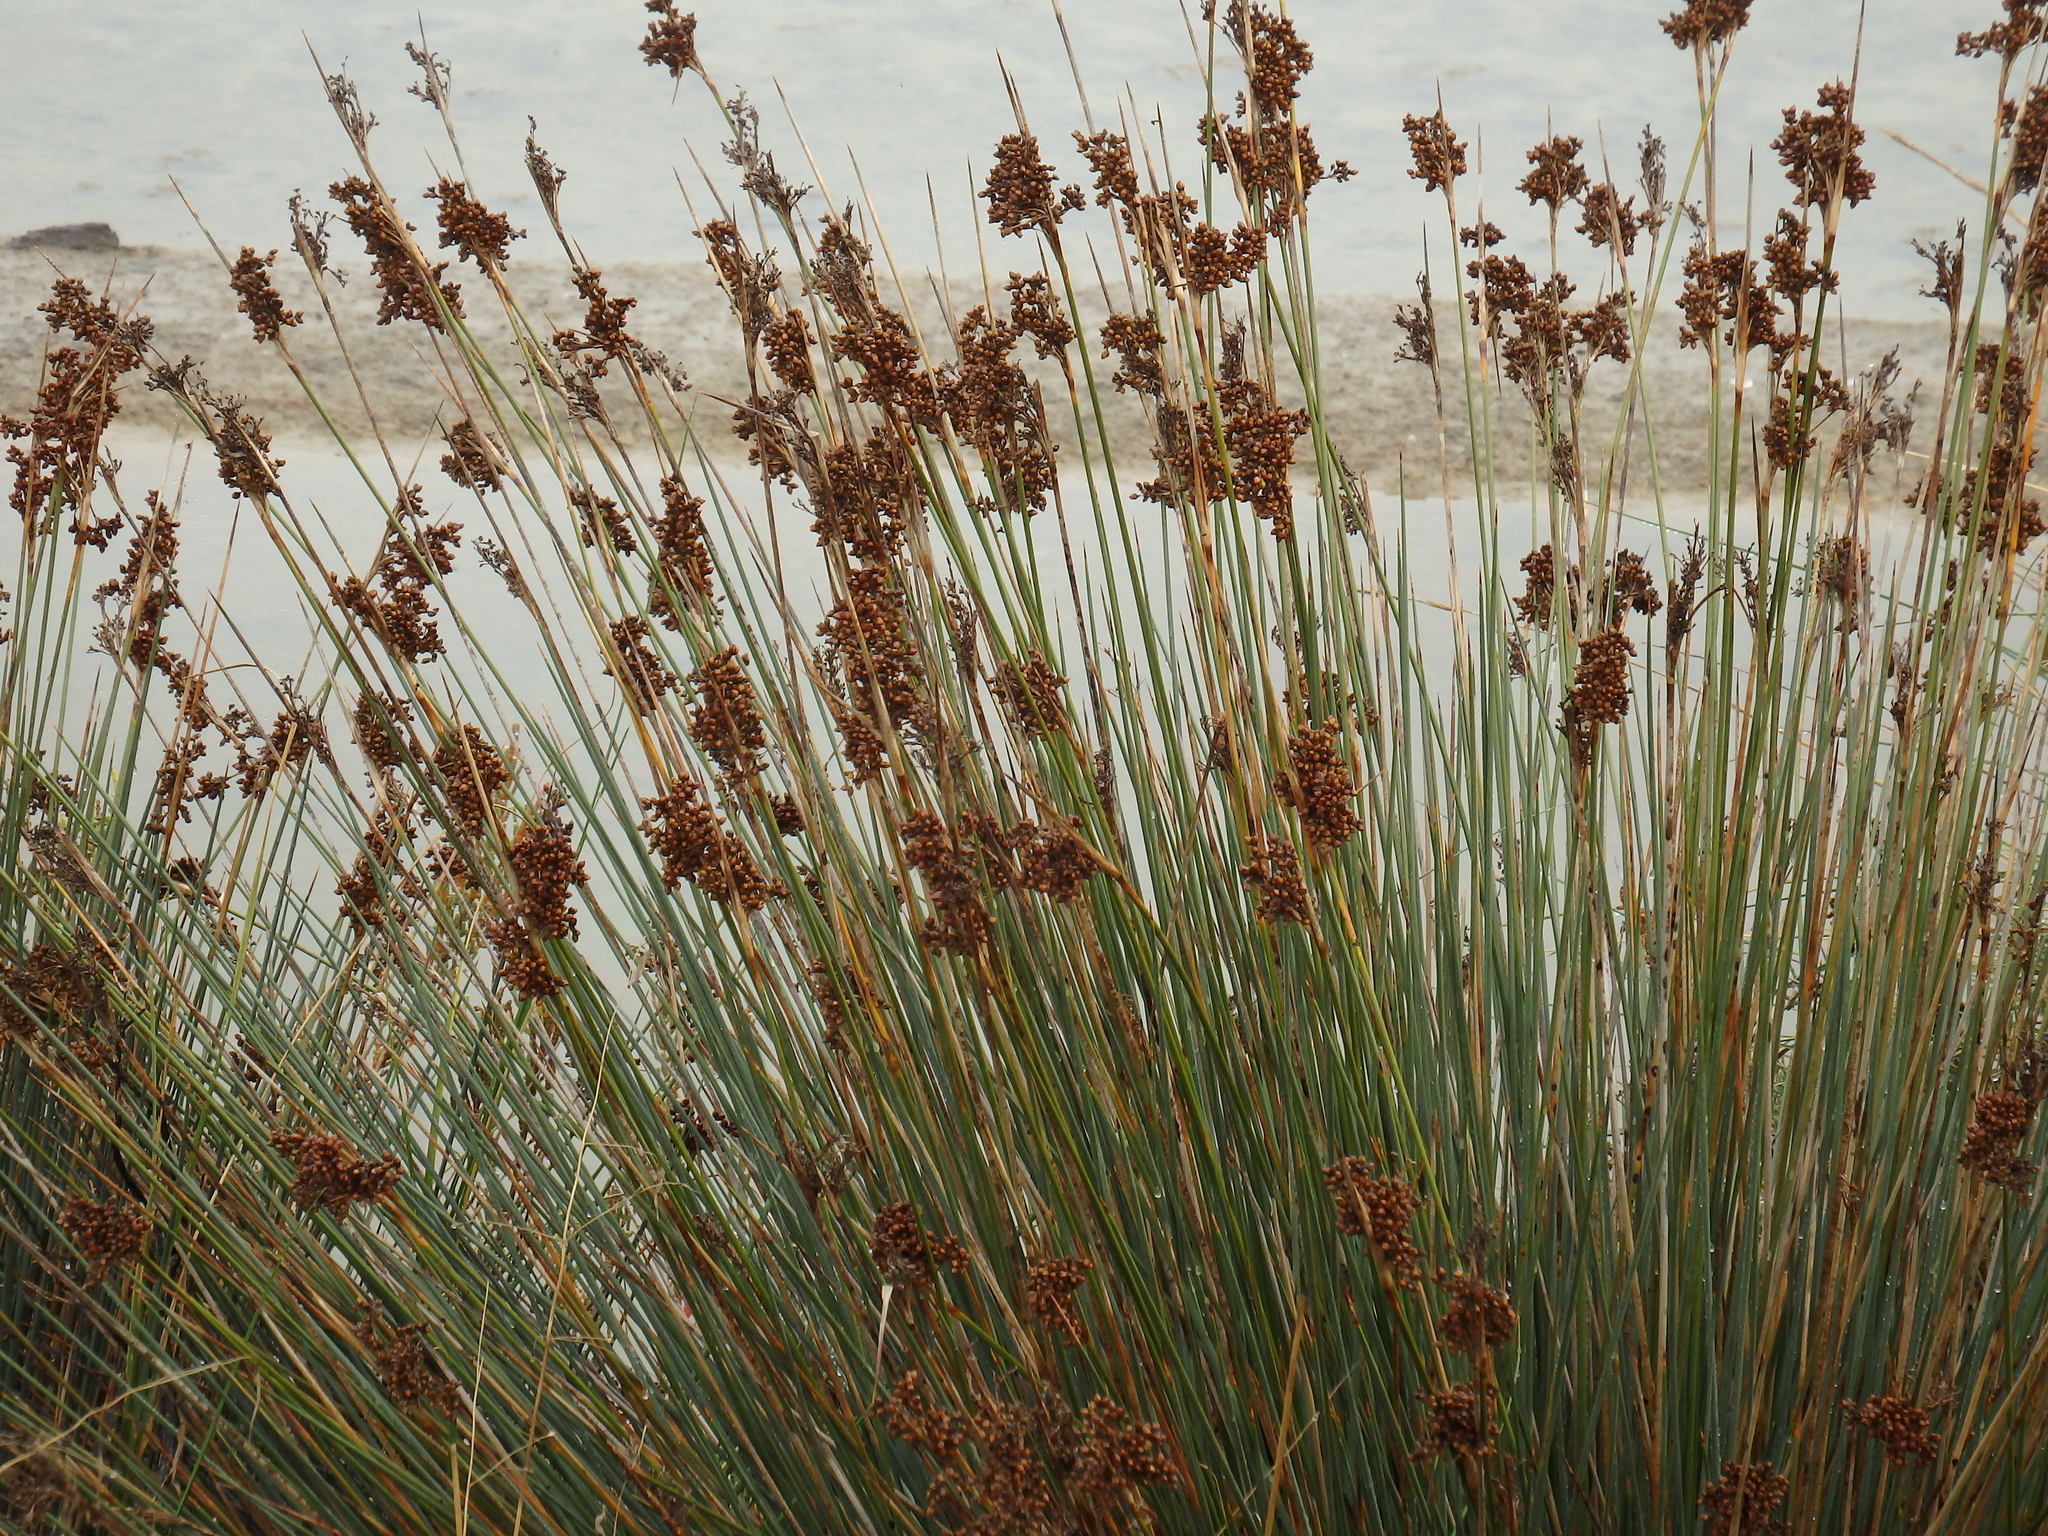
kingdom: Plantae
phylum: Tracheophyta
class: Liliopsida
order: Poales
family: Juncaceae
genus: Juncus
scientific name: Juncus acutus
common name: Sharp rush
